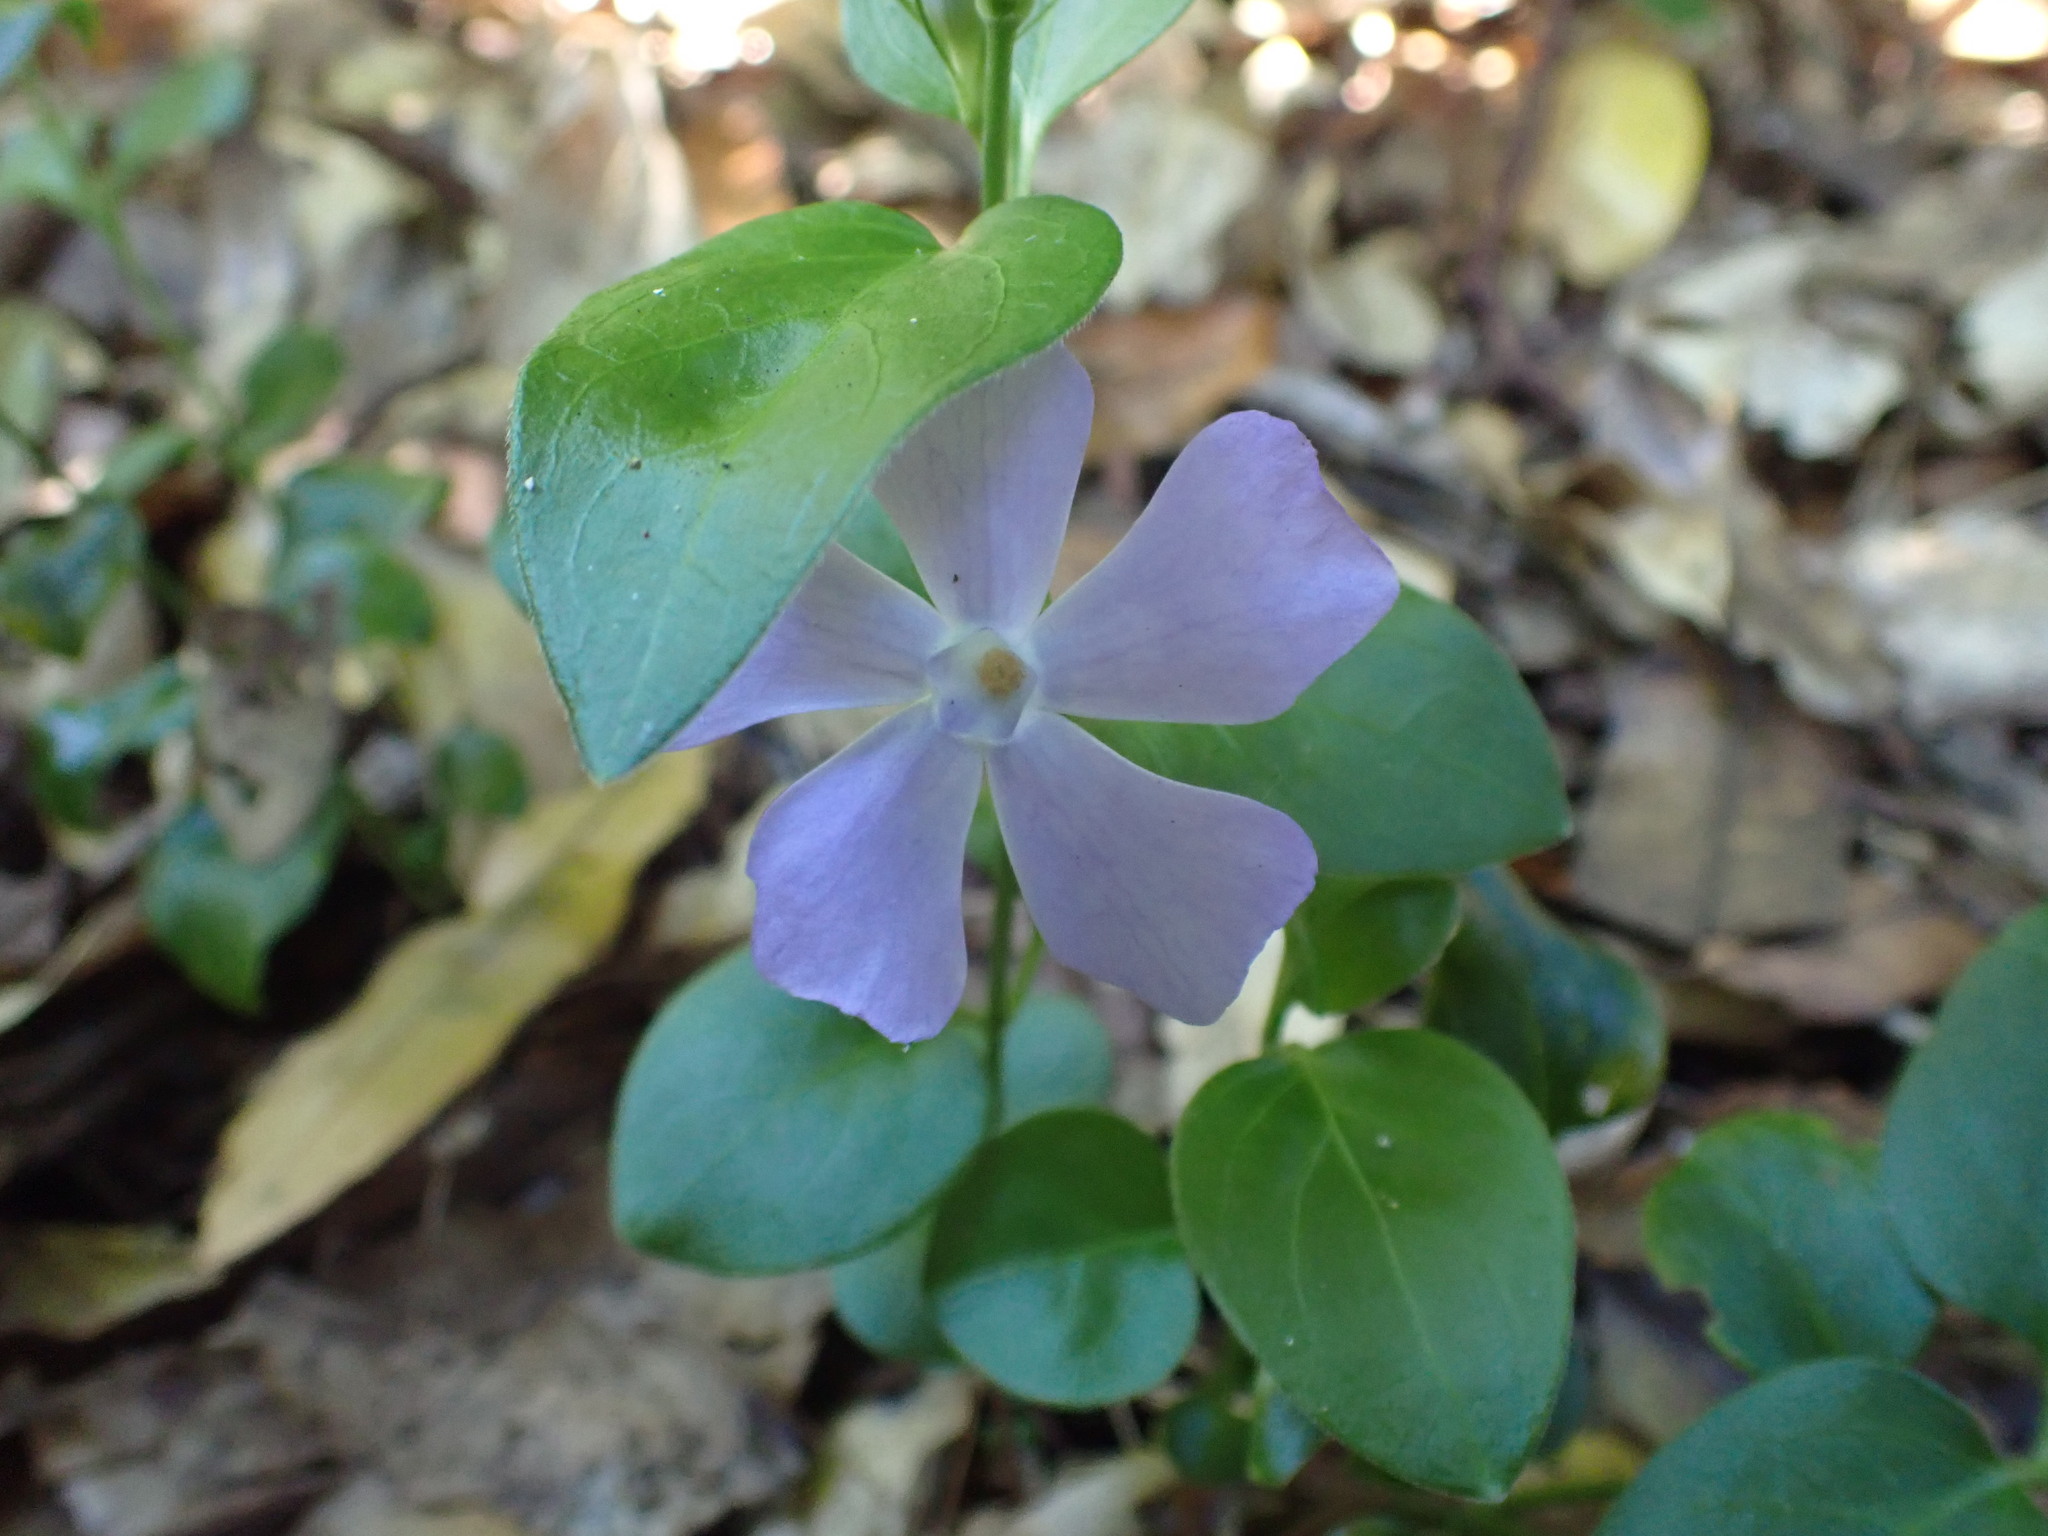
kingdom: Plantae
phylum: Tracheophyta
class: Magnoliopsida
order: Gentianales
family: Apocynaceae
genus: Vinca
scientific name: Vinca major
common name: Greater periwinkle
